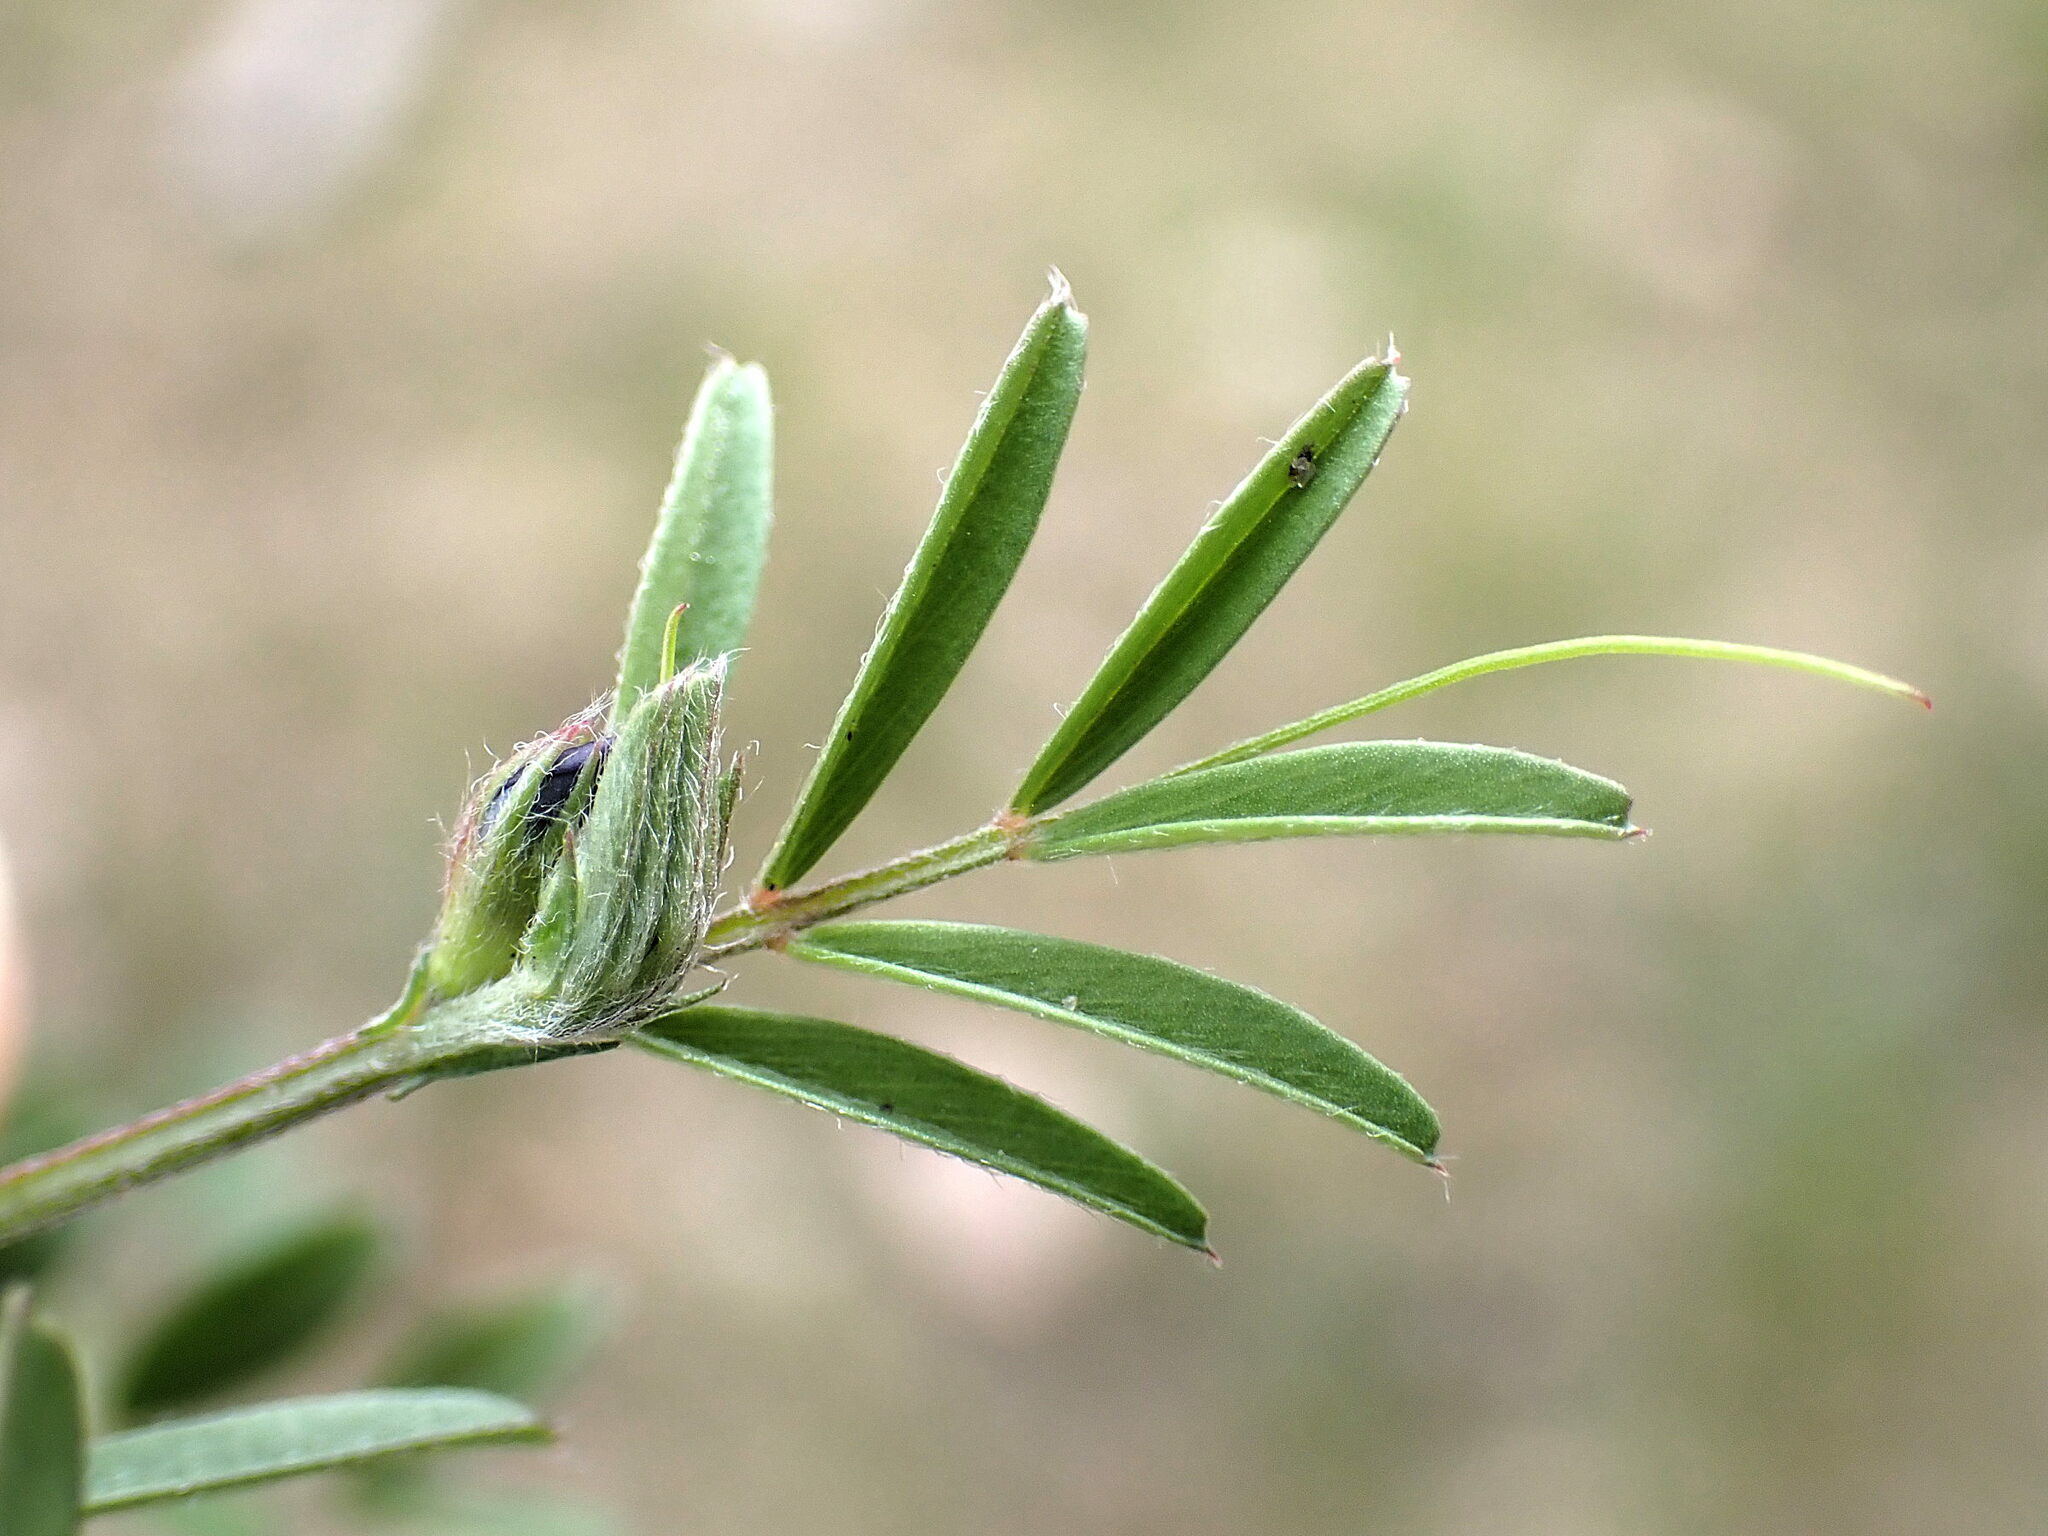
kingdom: Plantae
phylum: Tracheophyta
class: Magnoliopsida
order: Fabales
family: Fabaceae
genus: Vicia
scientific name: Vicia lathyroides
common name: Spring vetch
